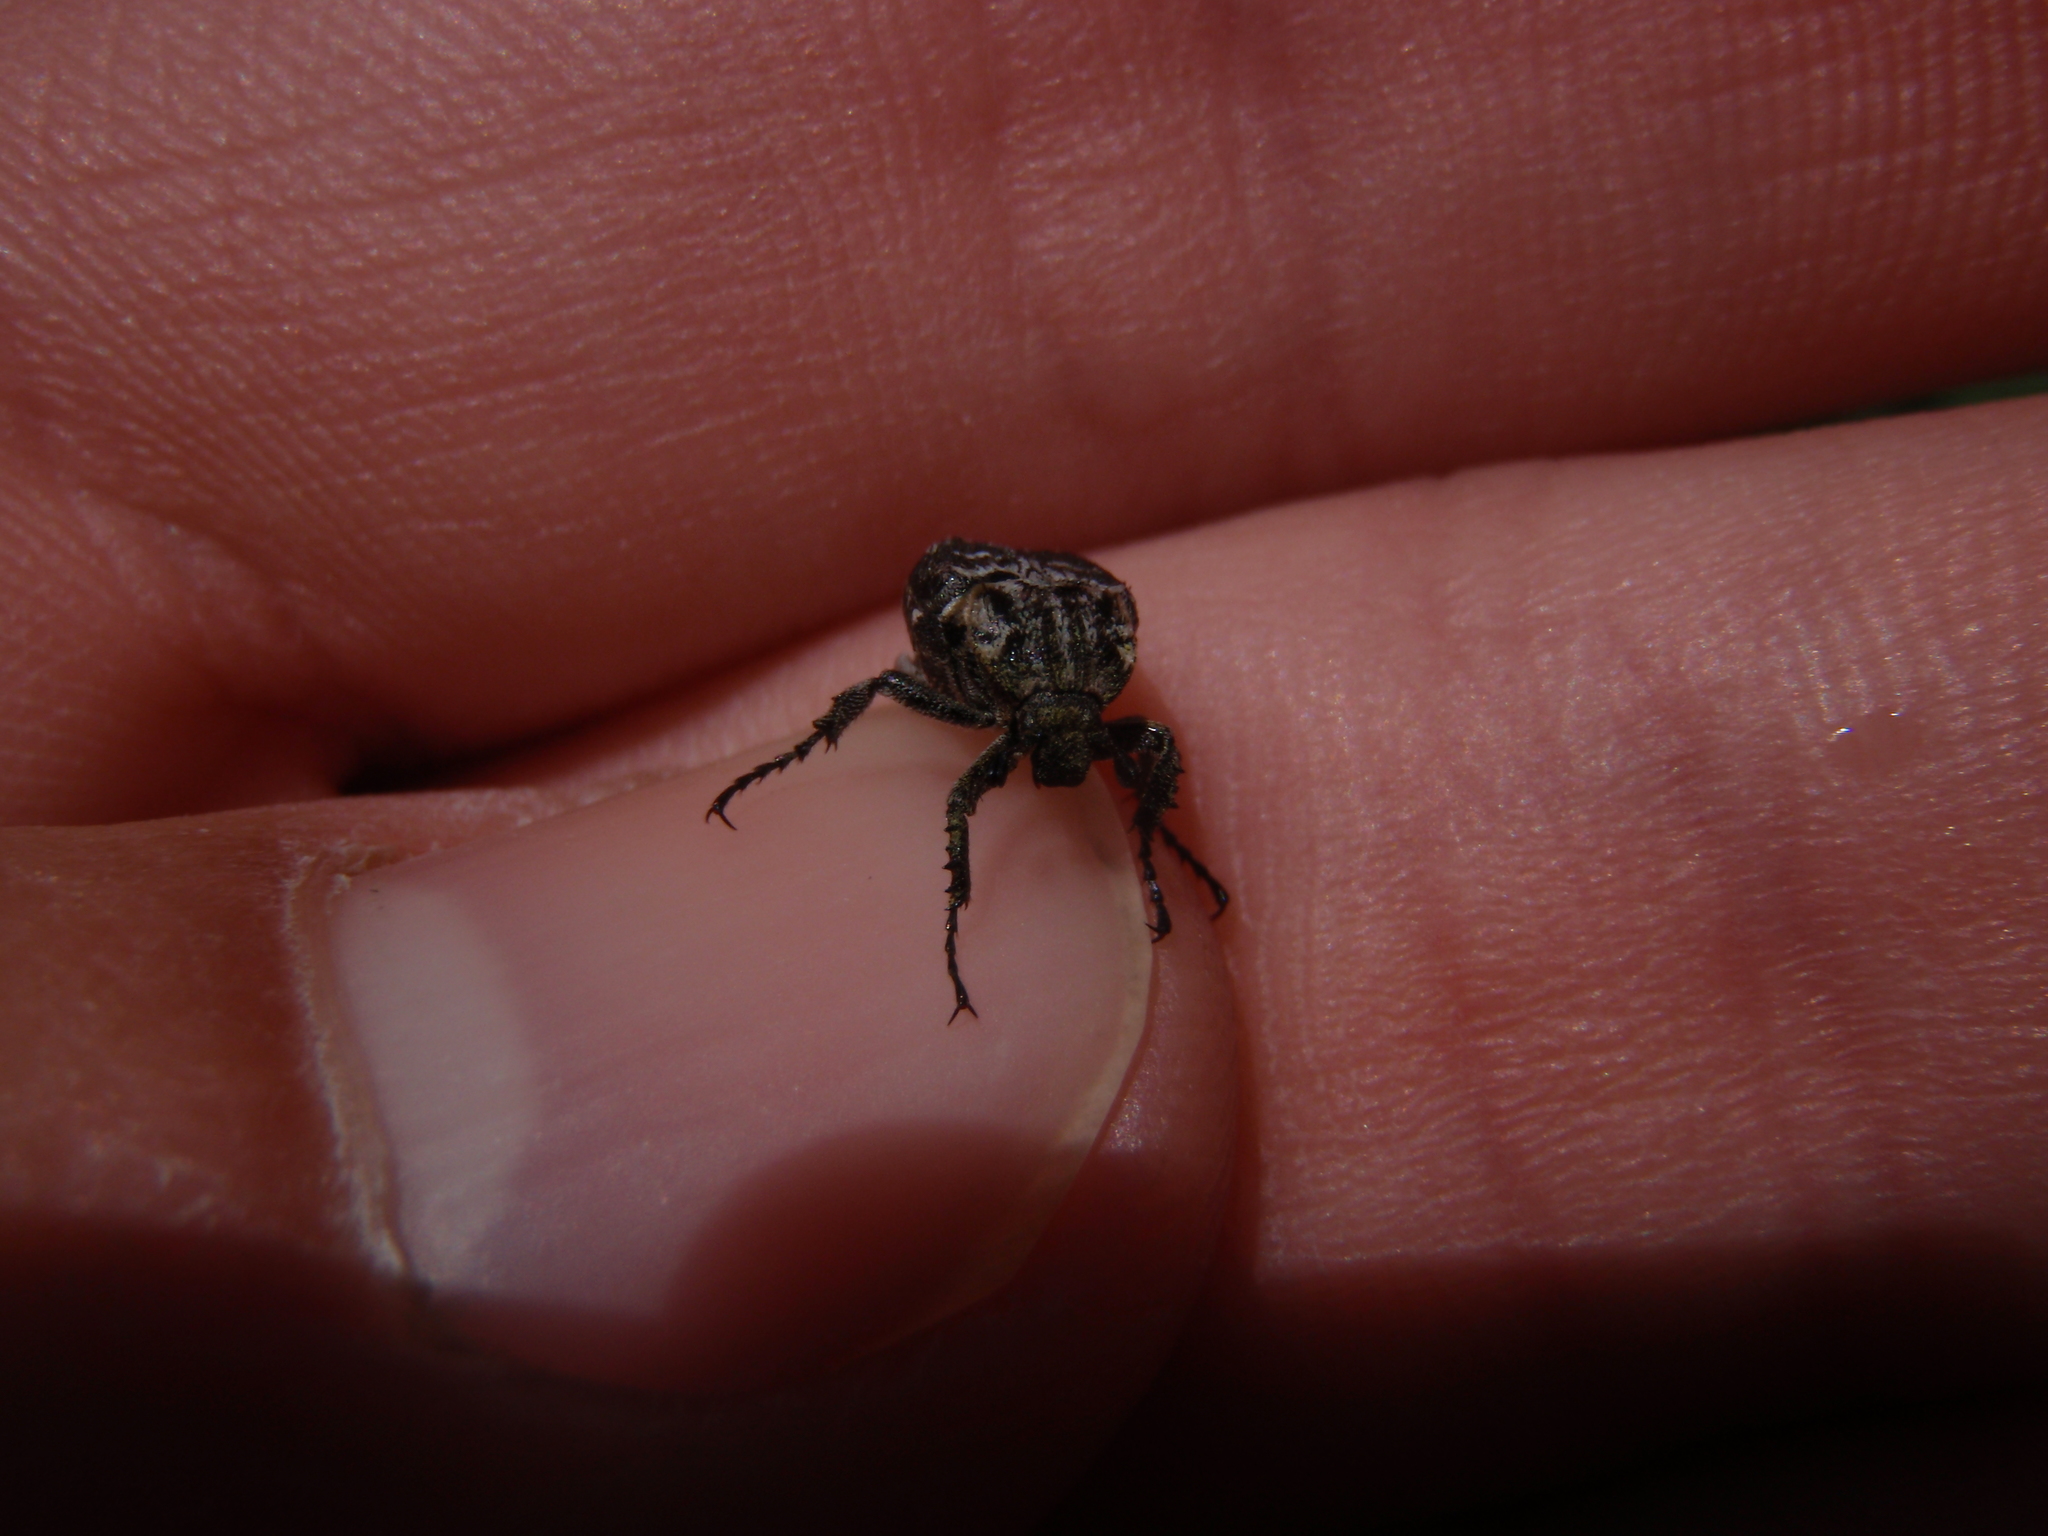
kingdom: Animalia
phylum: Arthropoda
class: Insecta
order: Coleoptera
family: Scarabaeidae
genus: Valgus
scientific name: Valgus hemipterus
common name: Bug flower chafer
